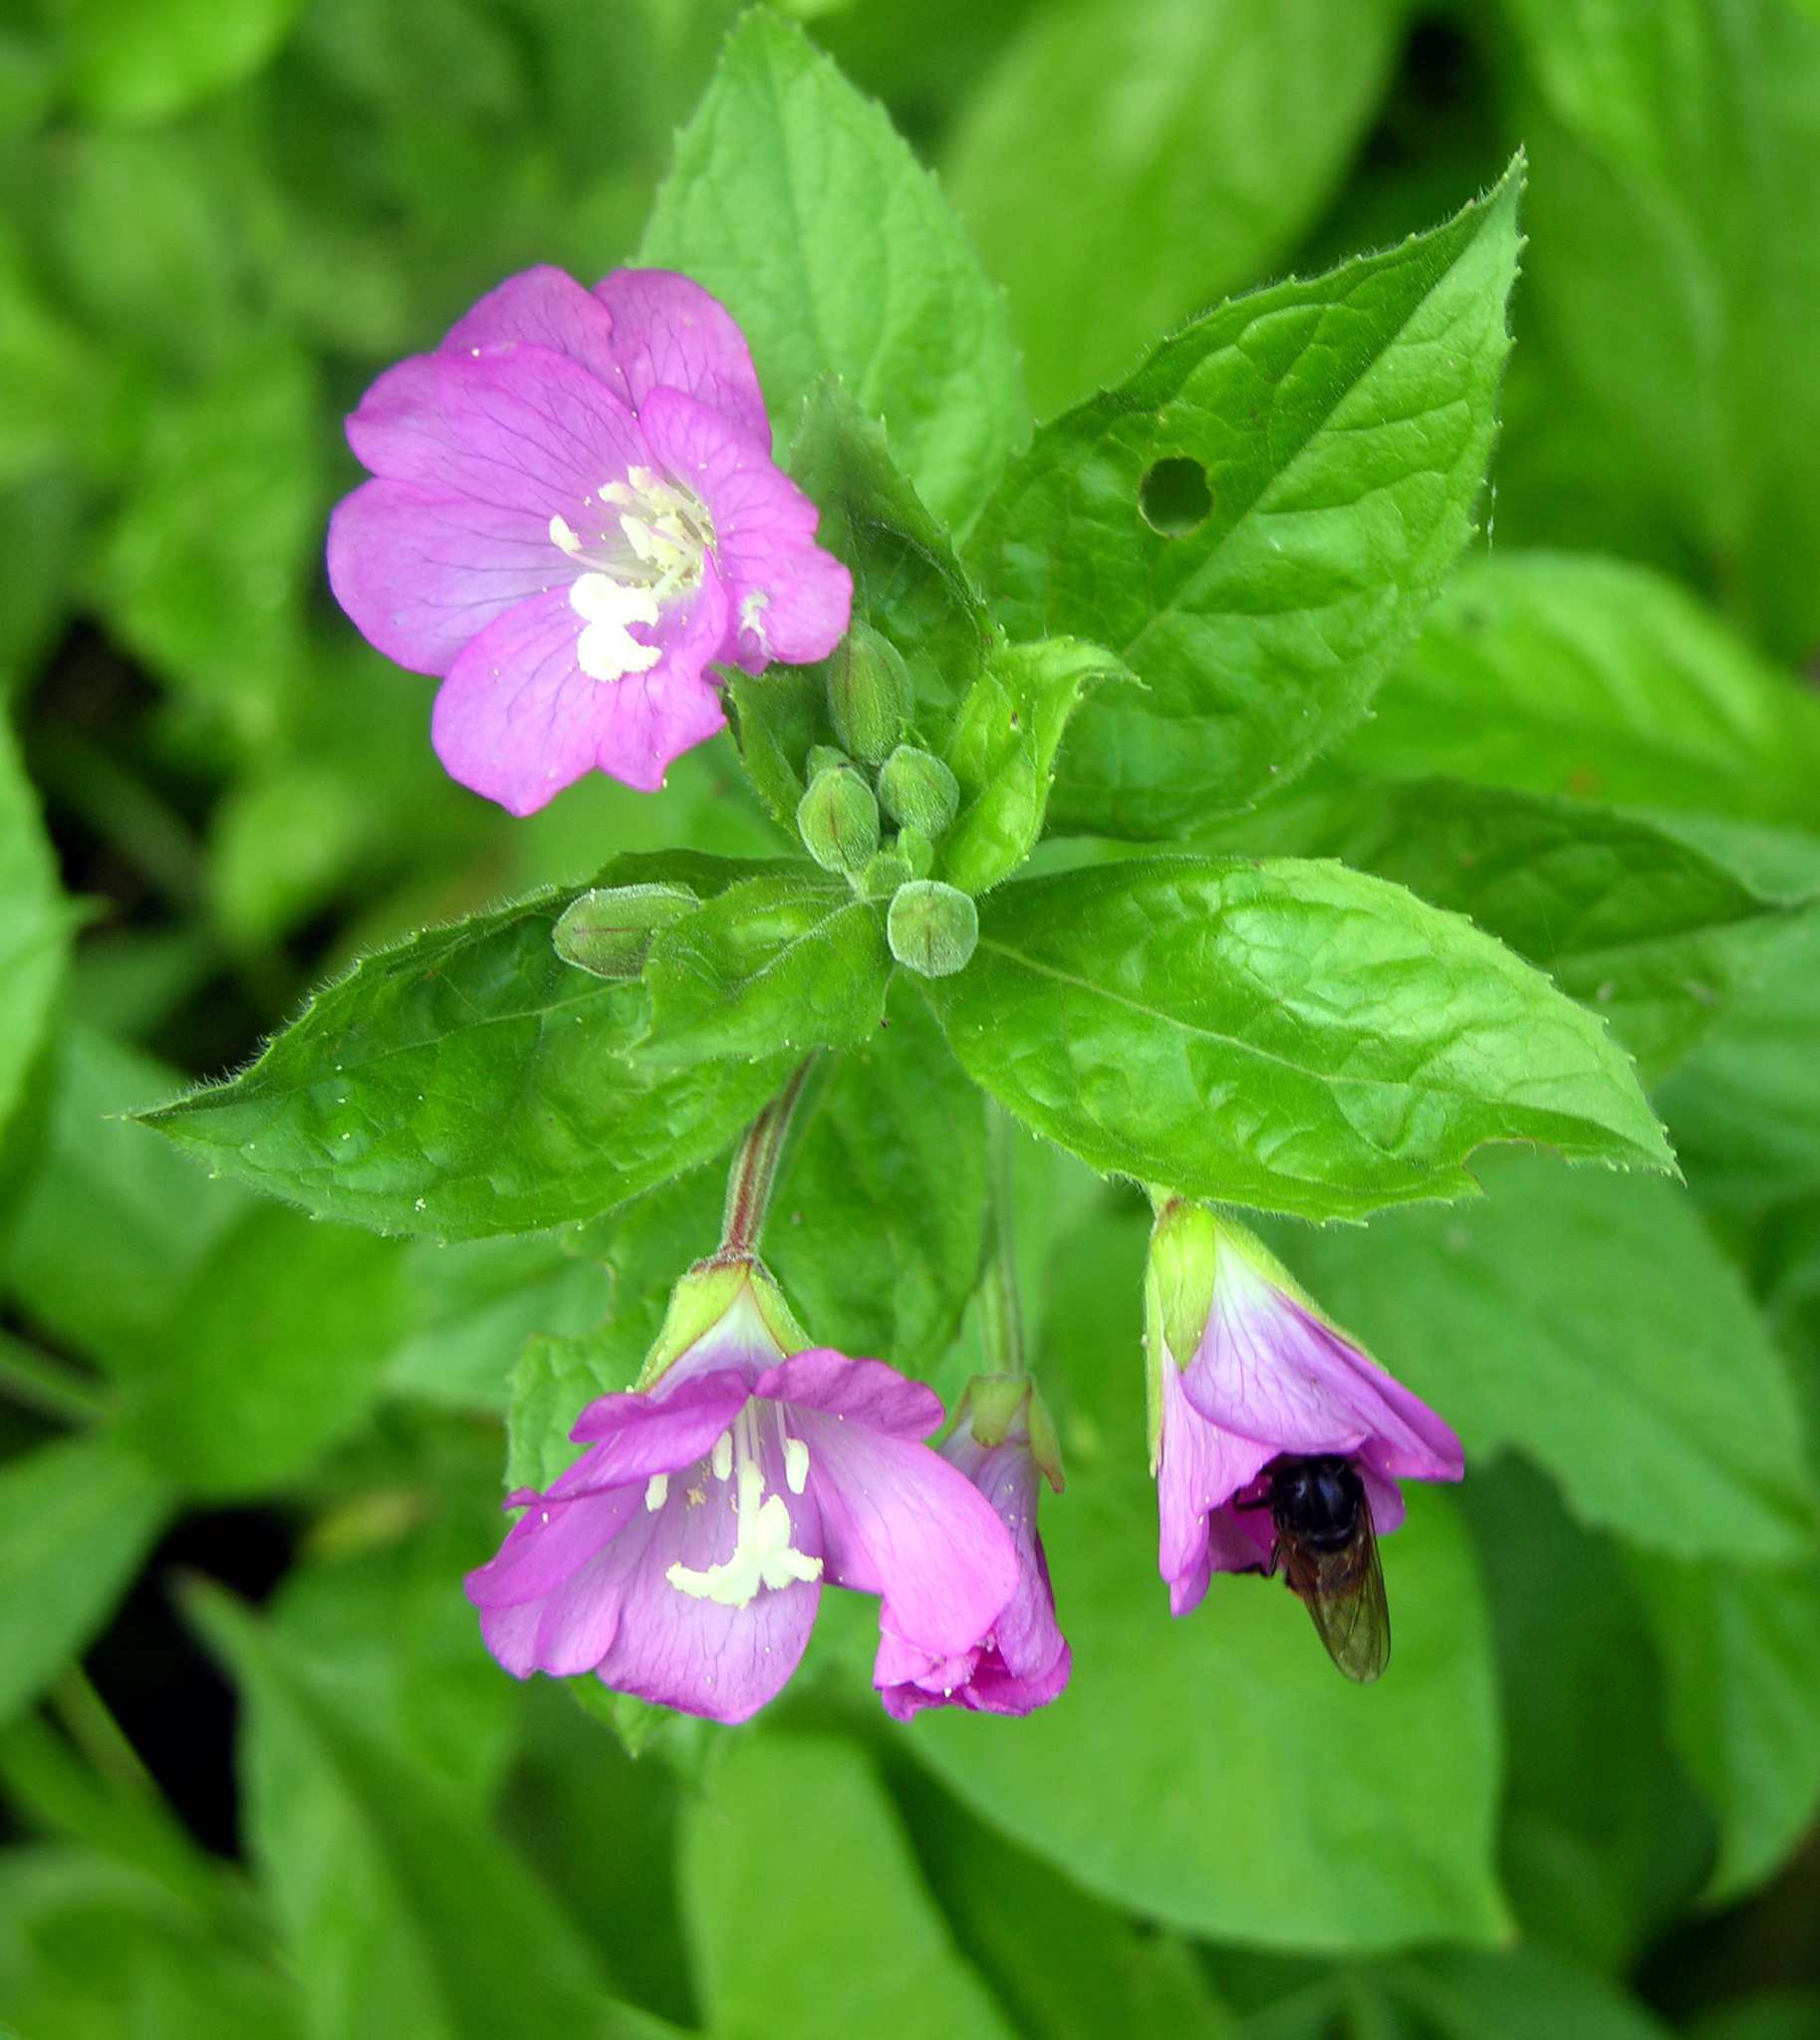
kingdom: Plantae
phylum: Tracheophyta
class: Magnoliopsida
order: Myrtales
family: Onagraceae
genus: Epilobium
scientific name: Epilobium hirsutum
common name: Great willowherb
